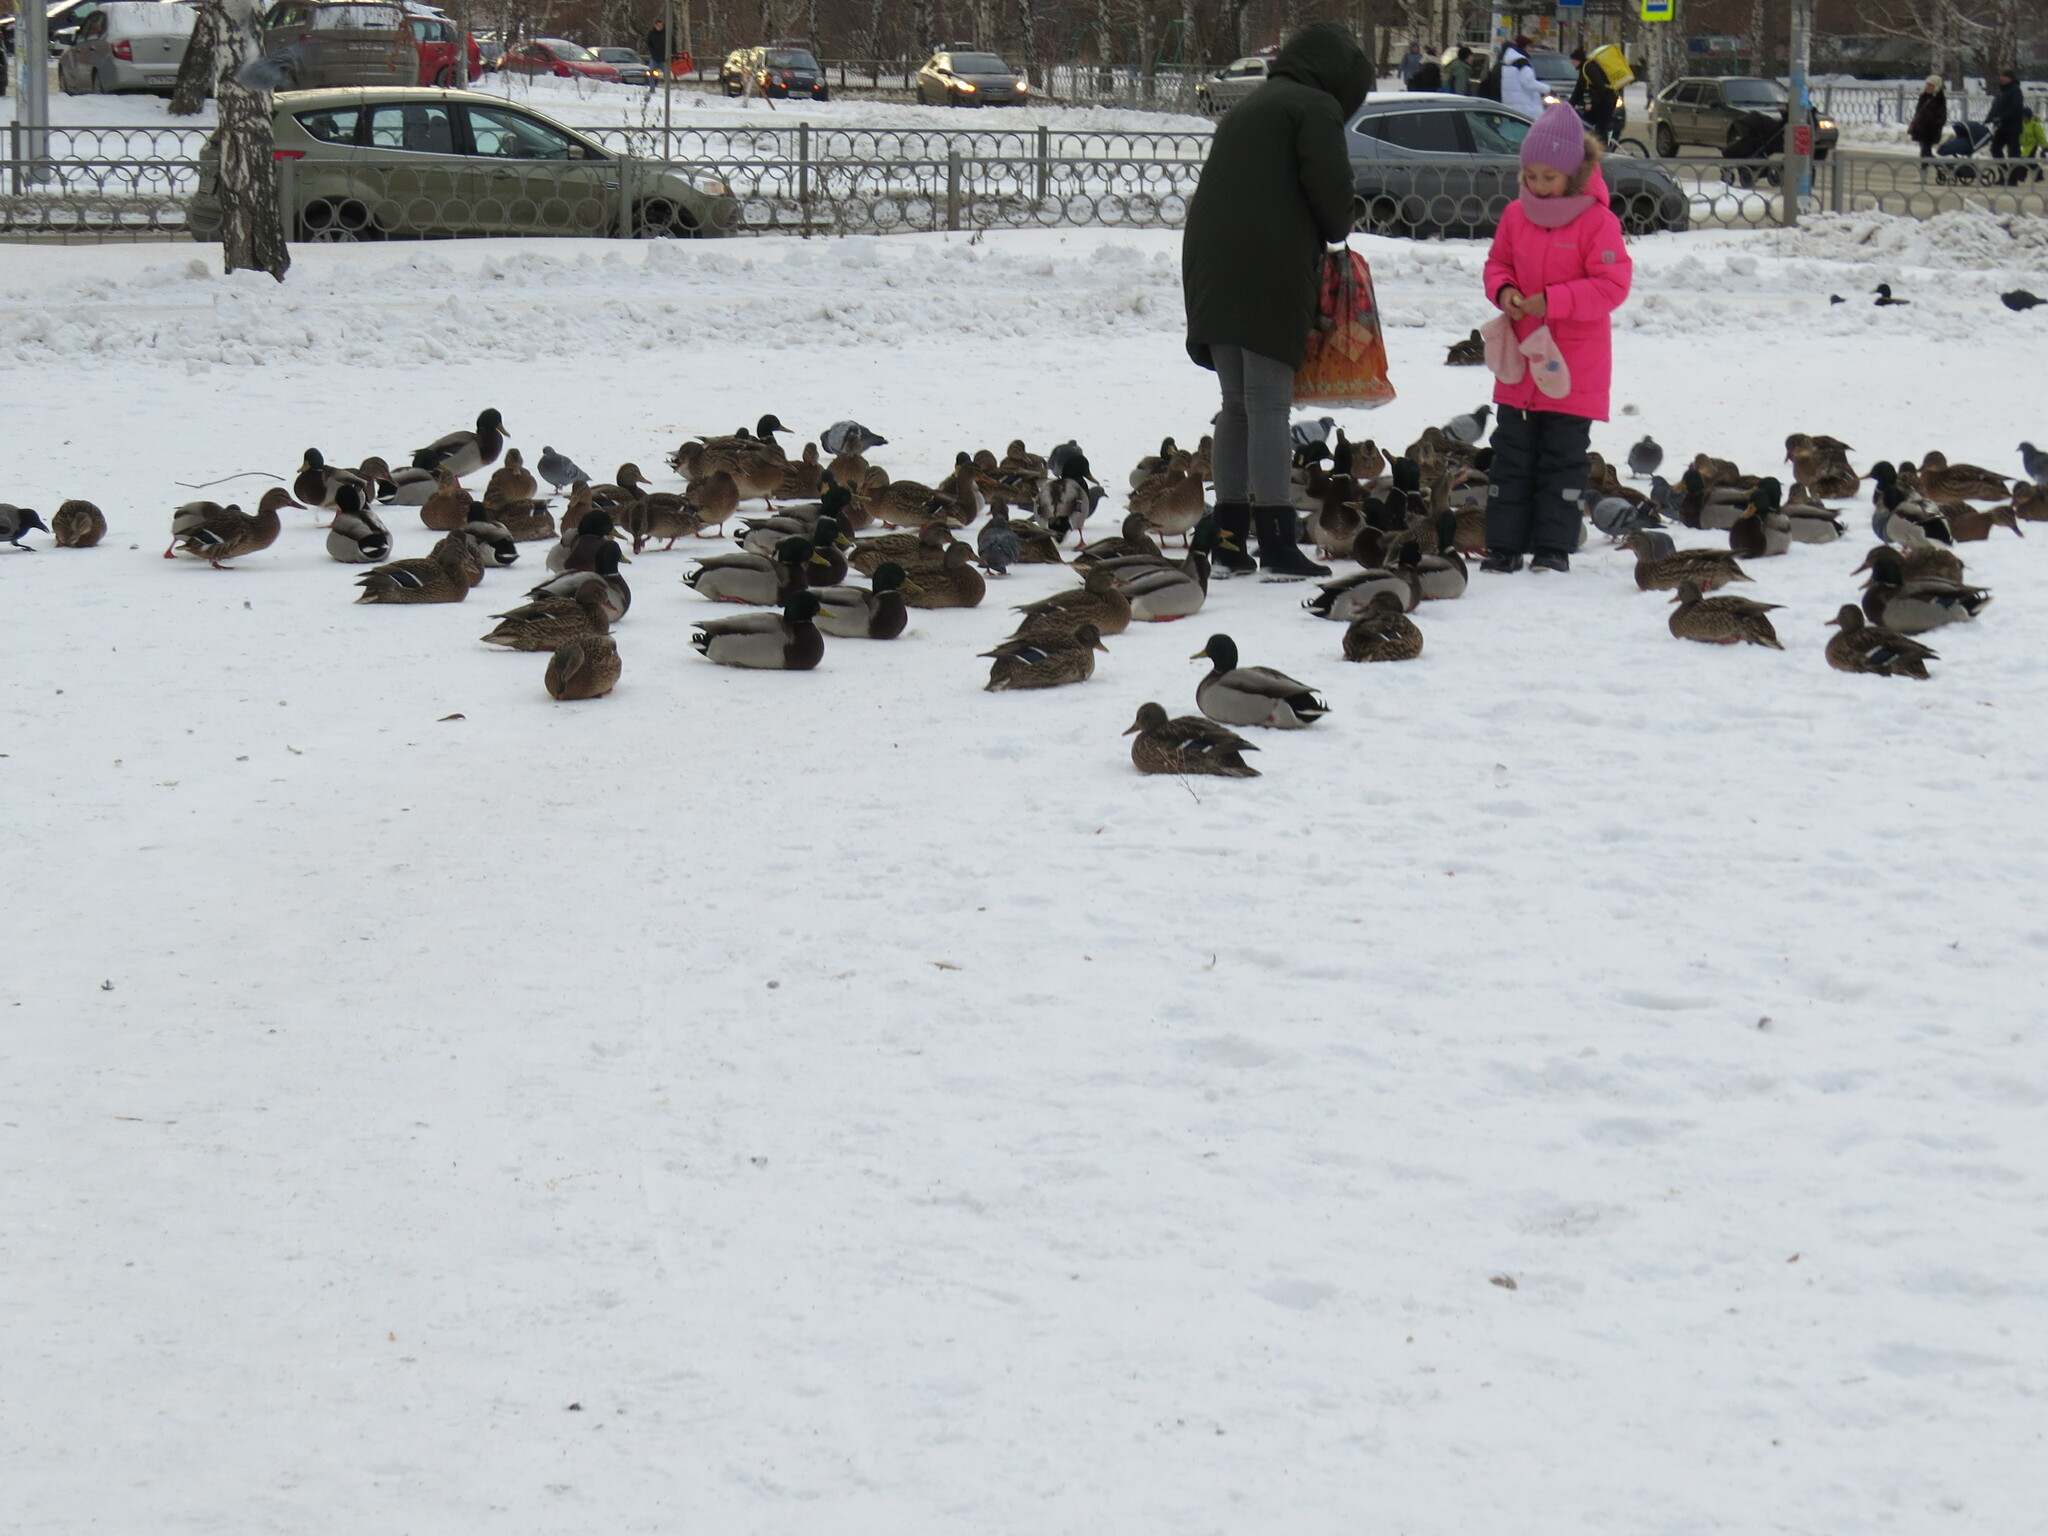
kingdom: Animalia
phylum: Chordata
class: Aves
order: Anseriformes
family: Anatidae
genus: Anas
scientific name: Anas platyrhynchos
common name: Mallard
